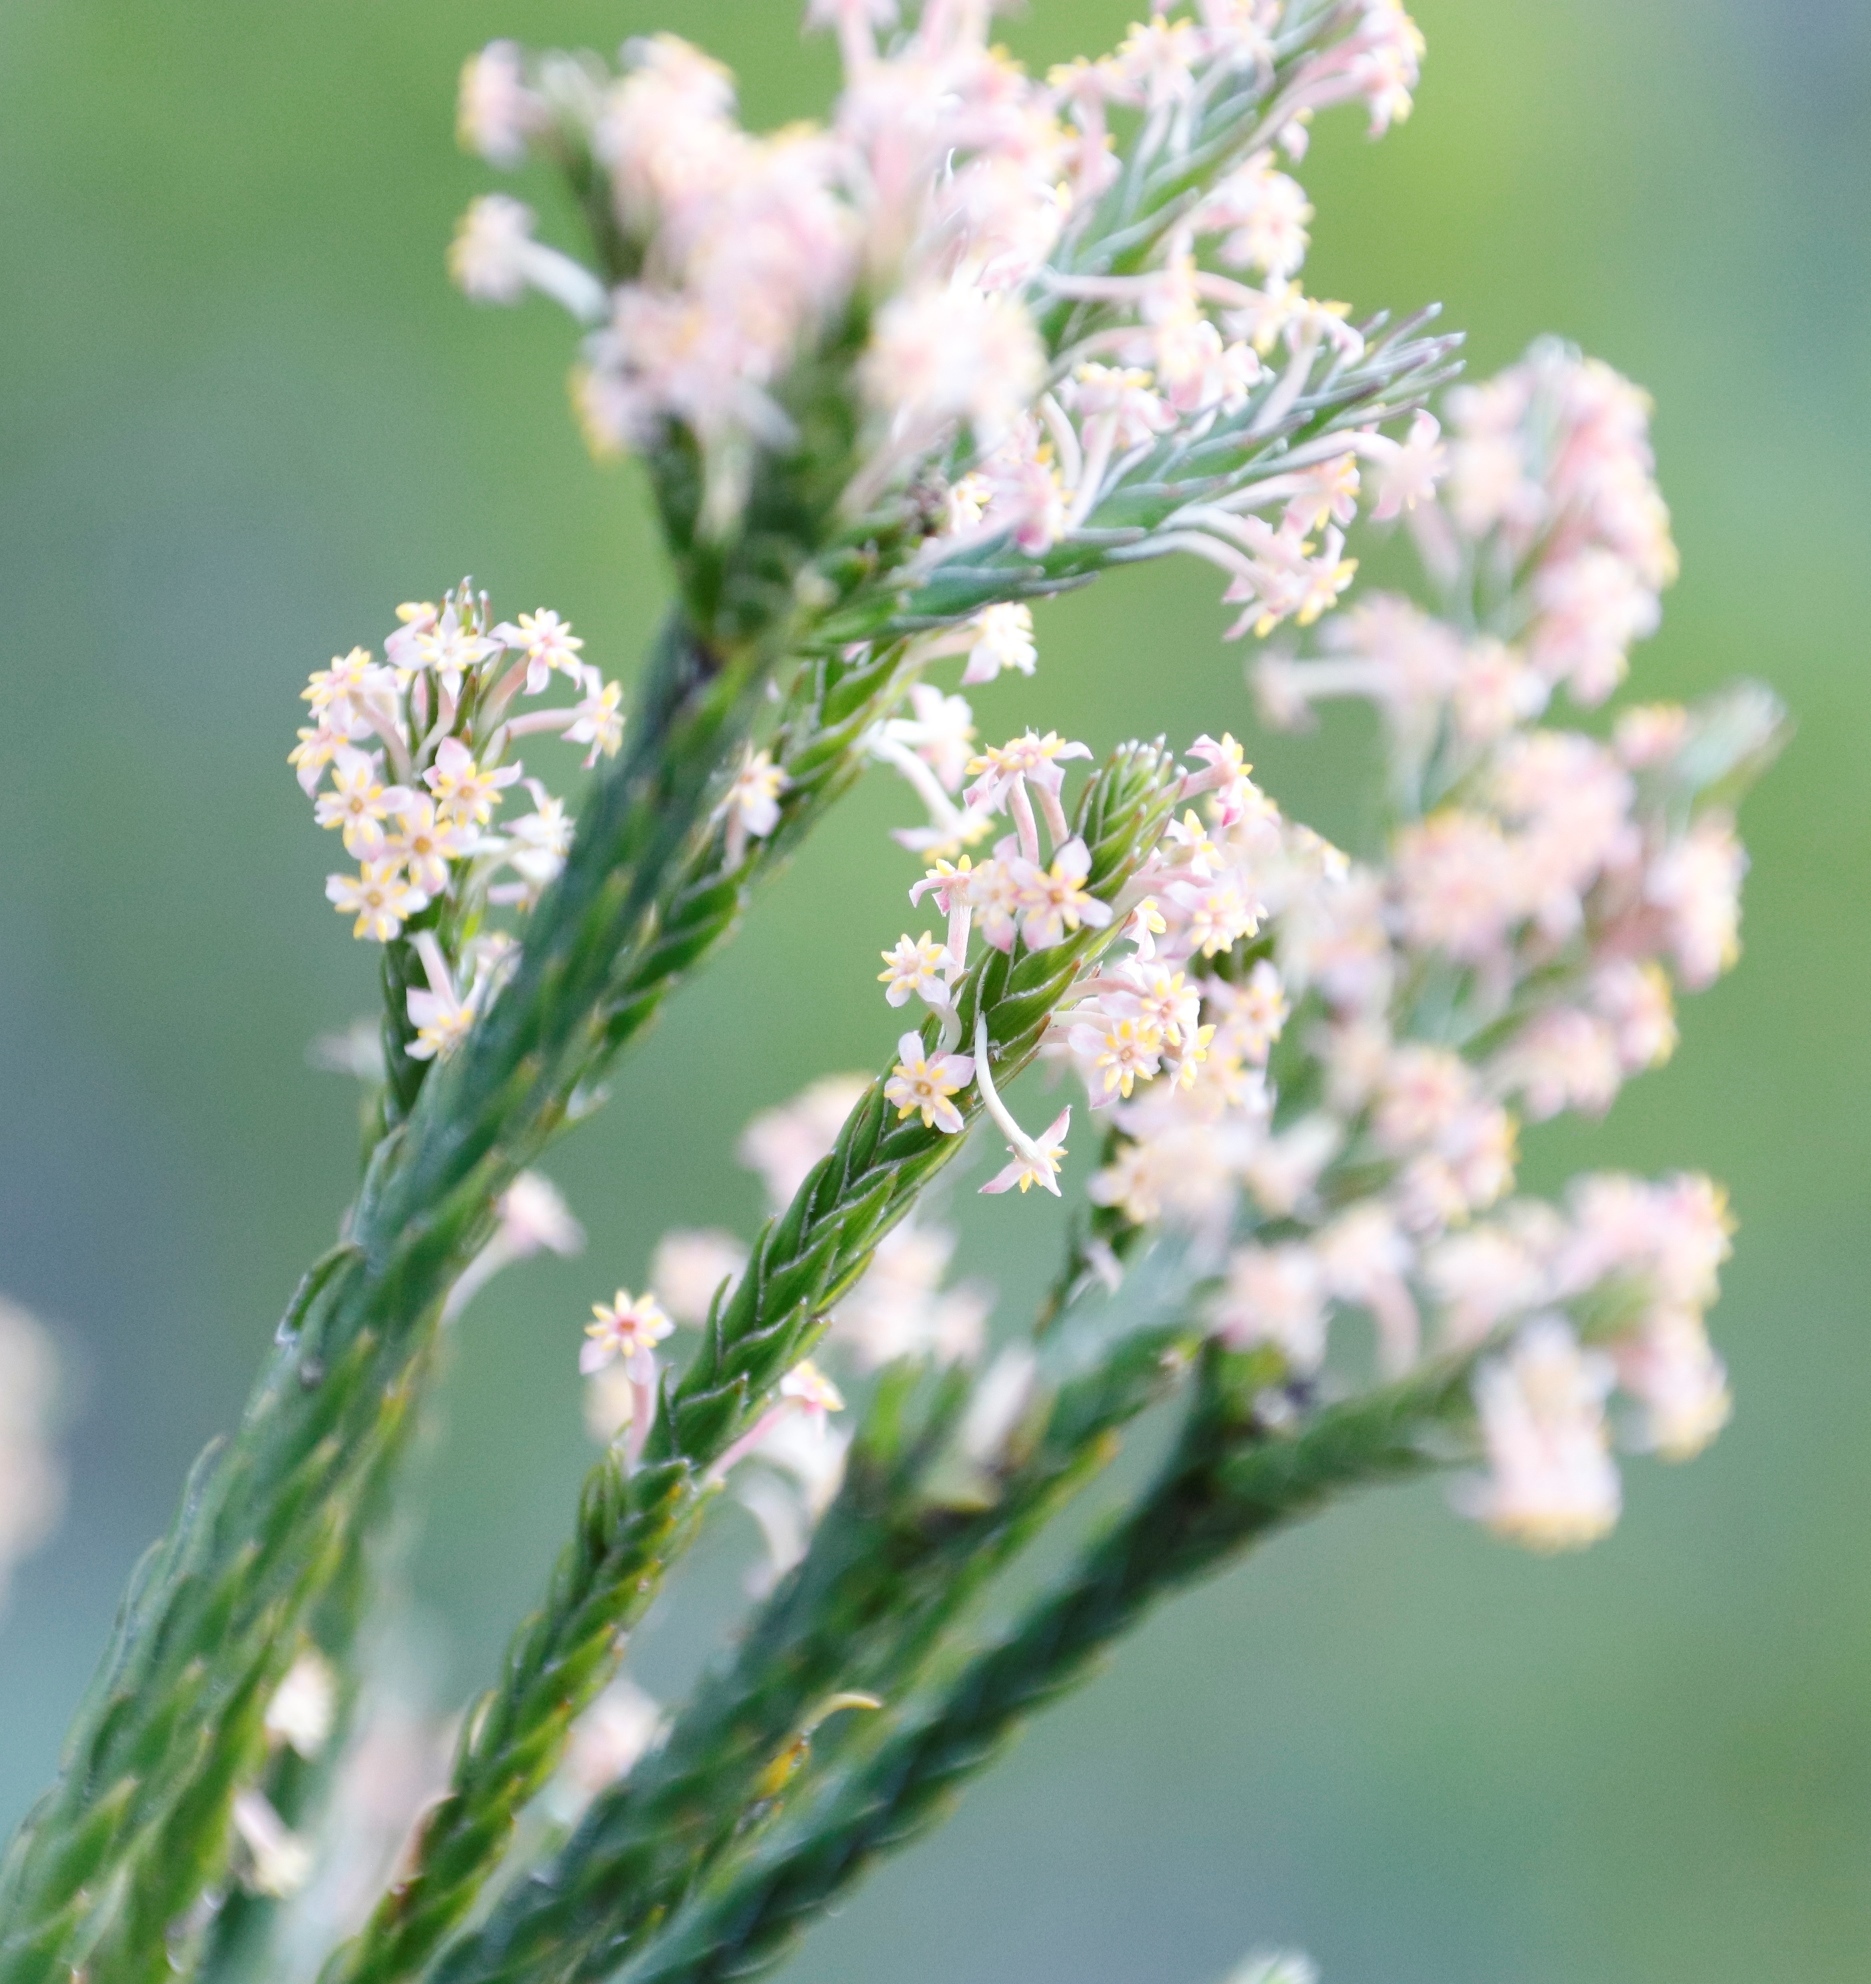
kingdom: Plantae
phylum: Tracheophyta
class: Magnoliopsida
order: Malvales
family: Thymelaeaceae
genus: Struthiola
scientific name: Struthiola ciliata
